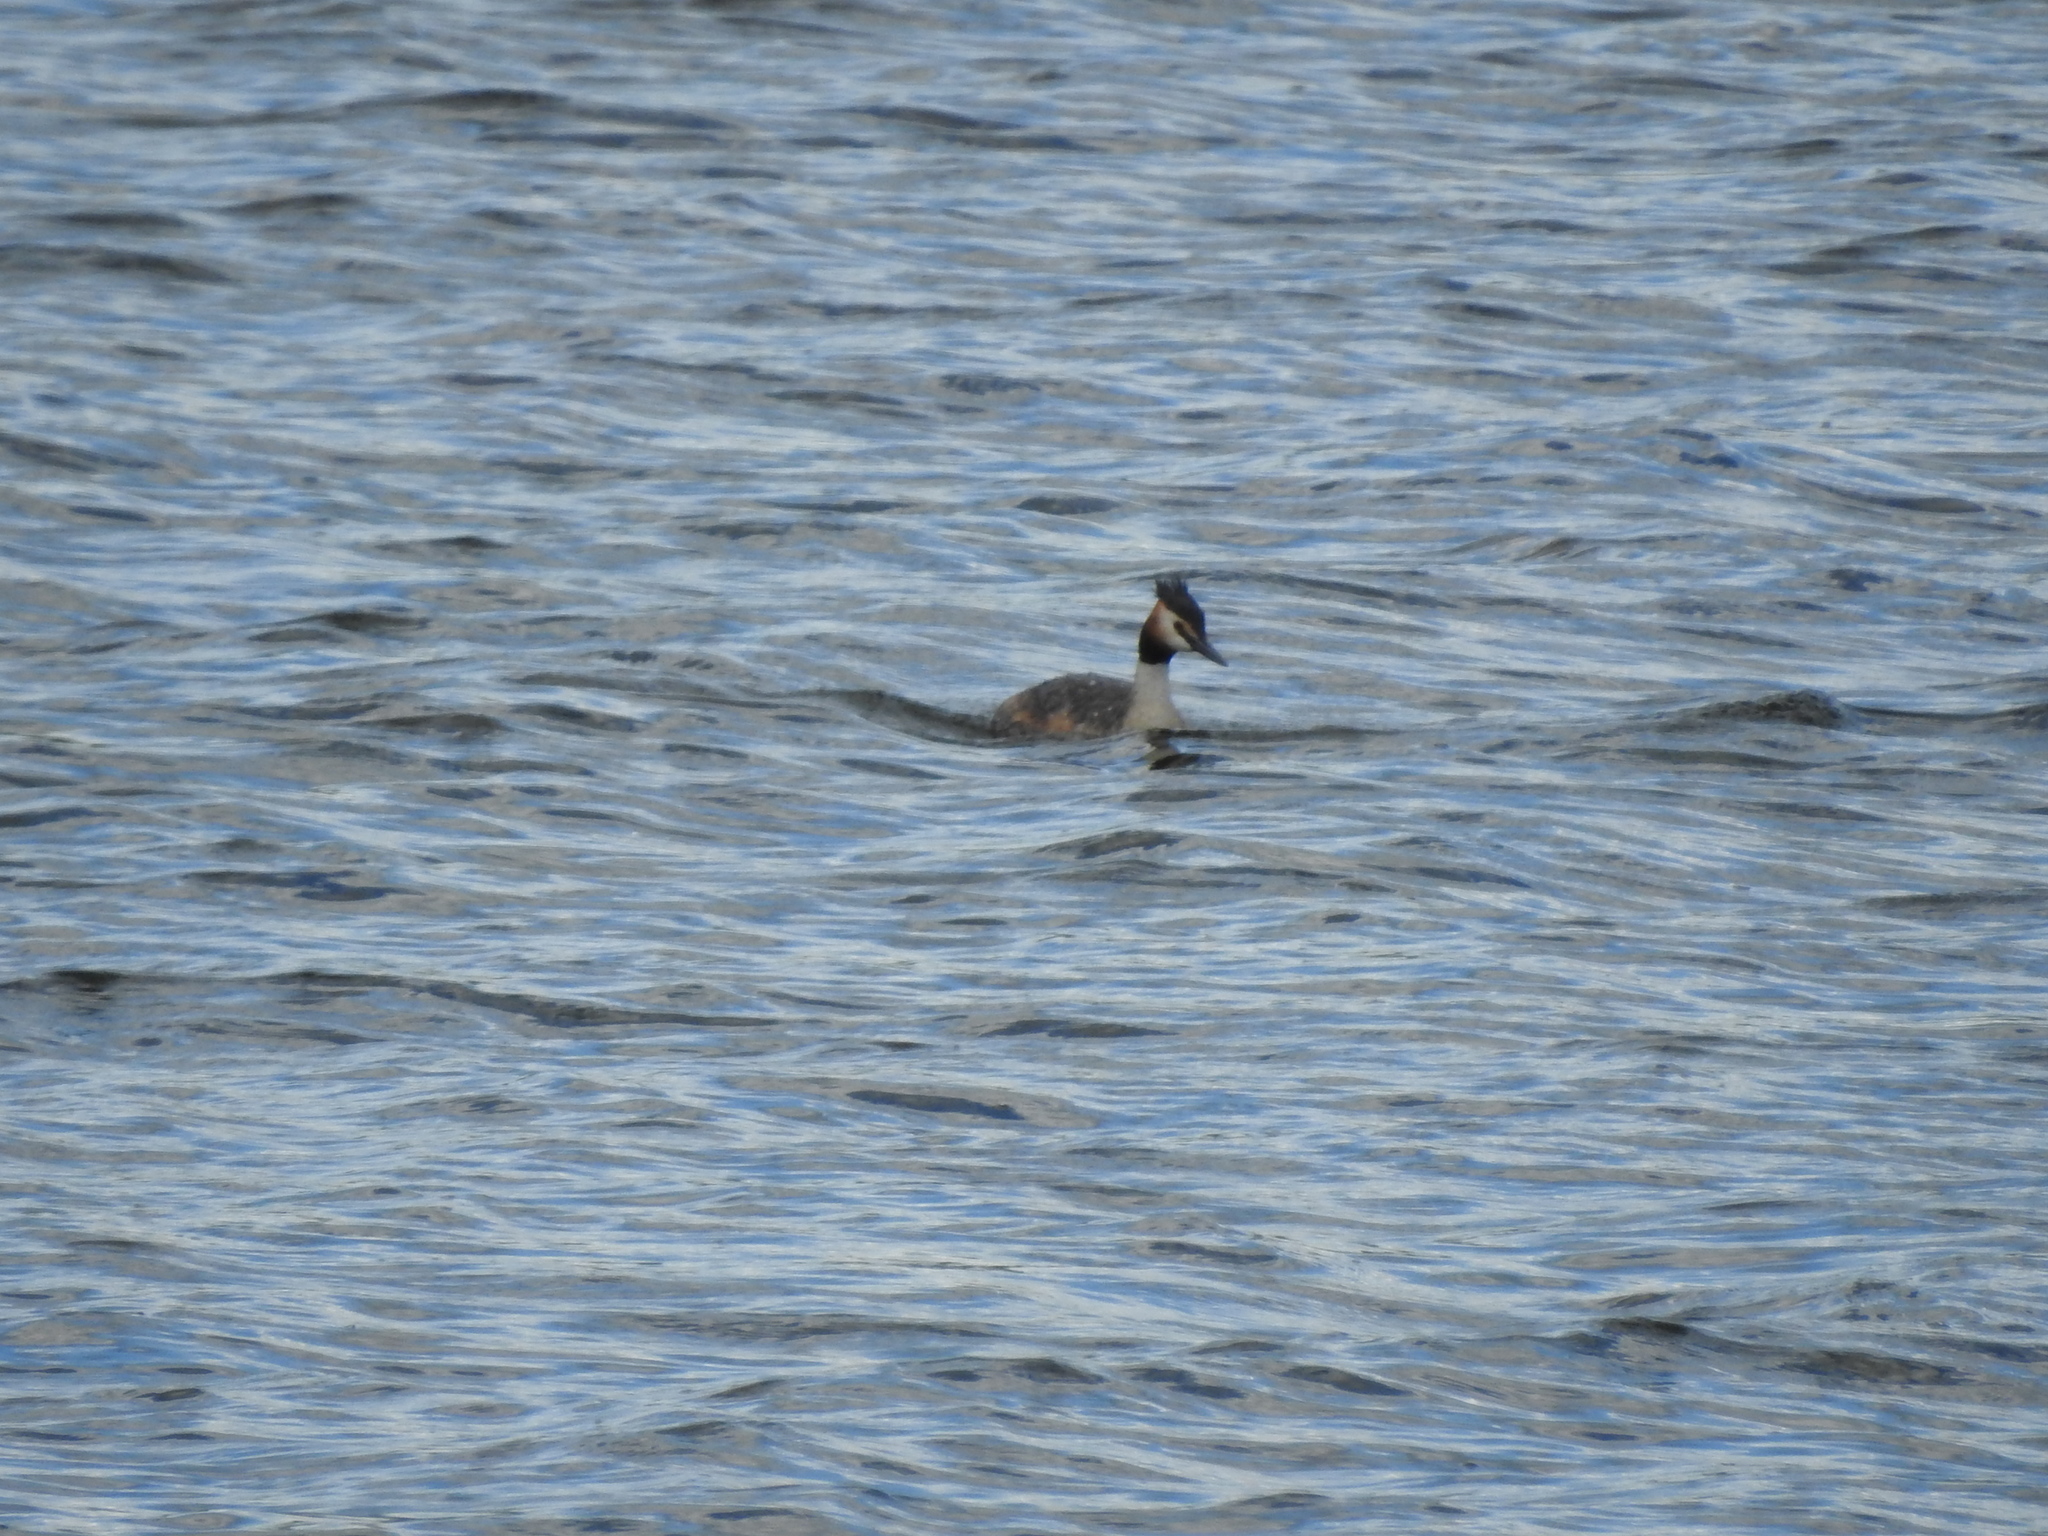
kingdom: Animalia
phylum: Chordata
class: Aves
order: Podicipediformes
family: Podicipedidae
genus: Podiceps
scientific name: Podiceps cristatus
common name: Great crested grebe
